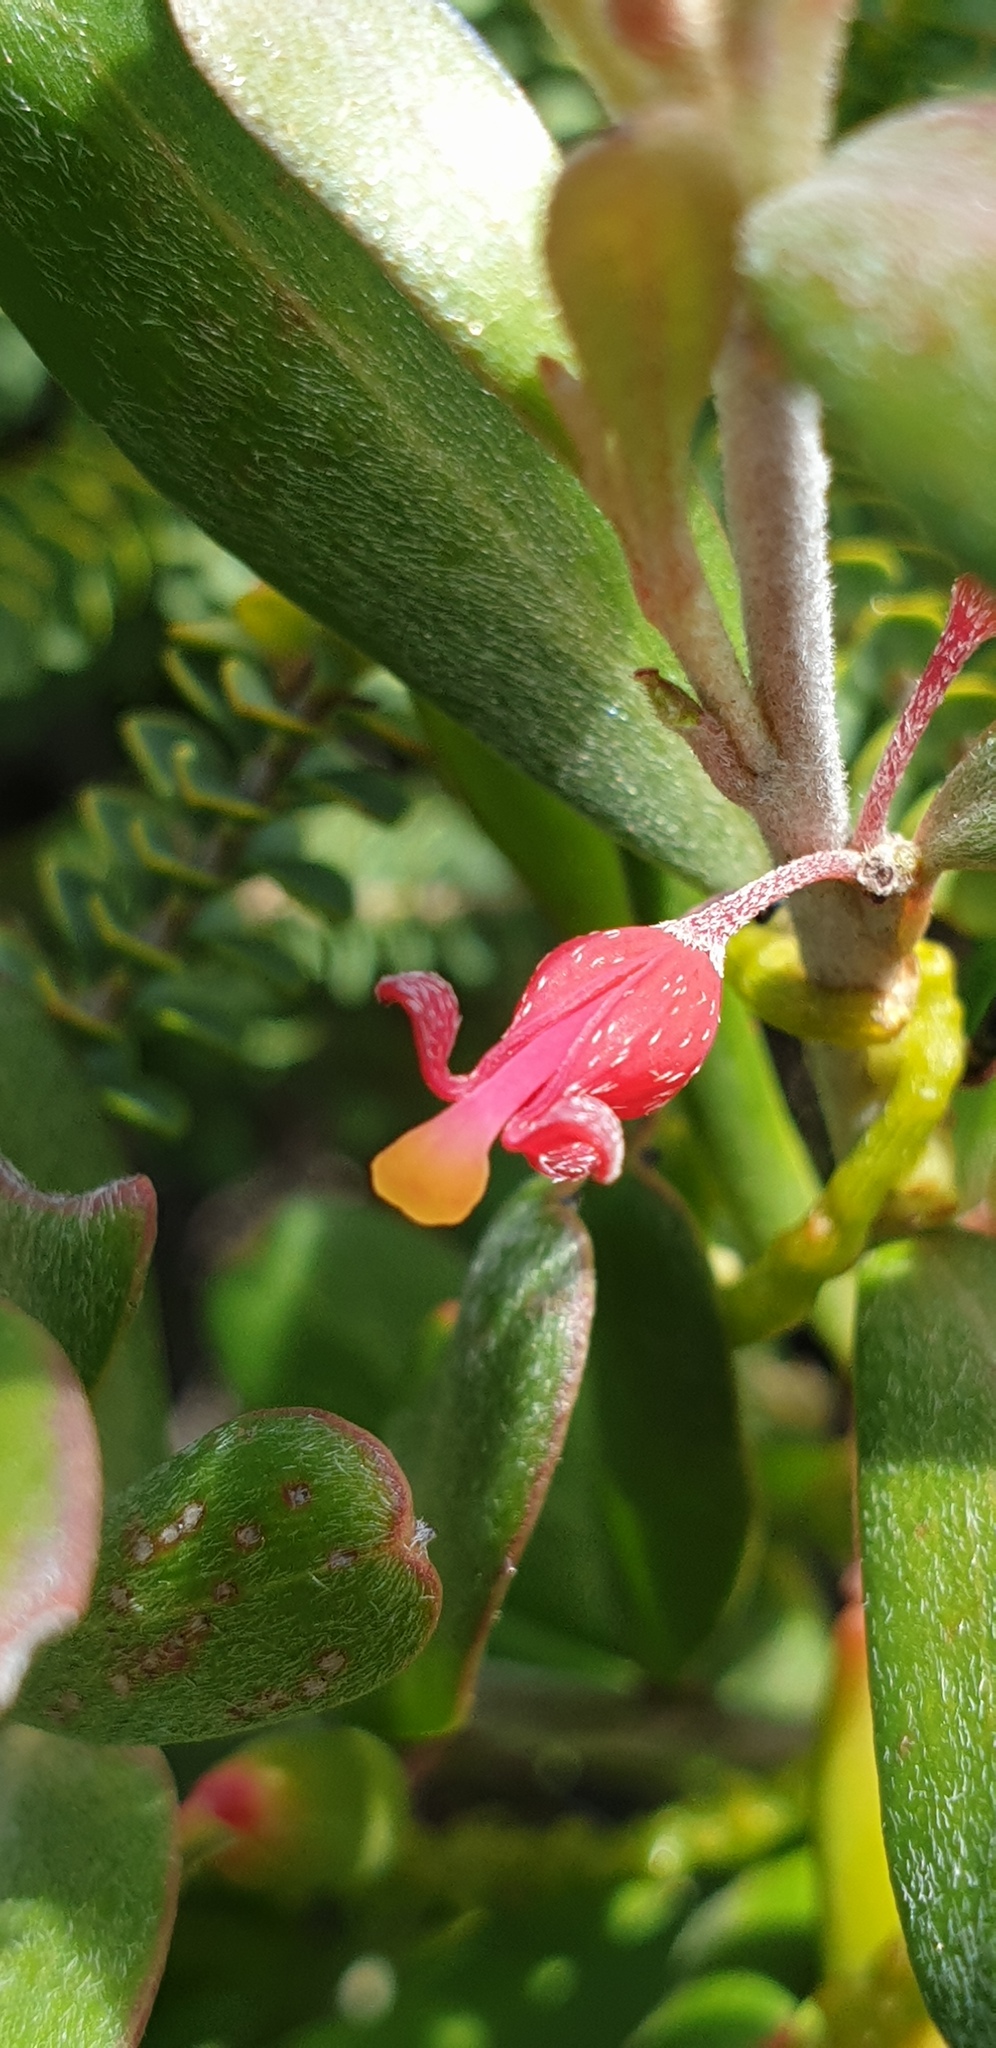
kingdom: Plantae
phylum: Tracheophyta
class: Magnoliopsida
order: Proteales
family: Proteaceae
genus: Grevillea
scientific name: Grevillea pauciflora
